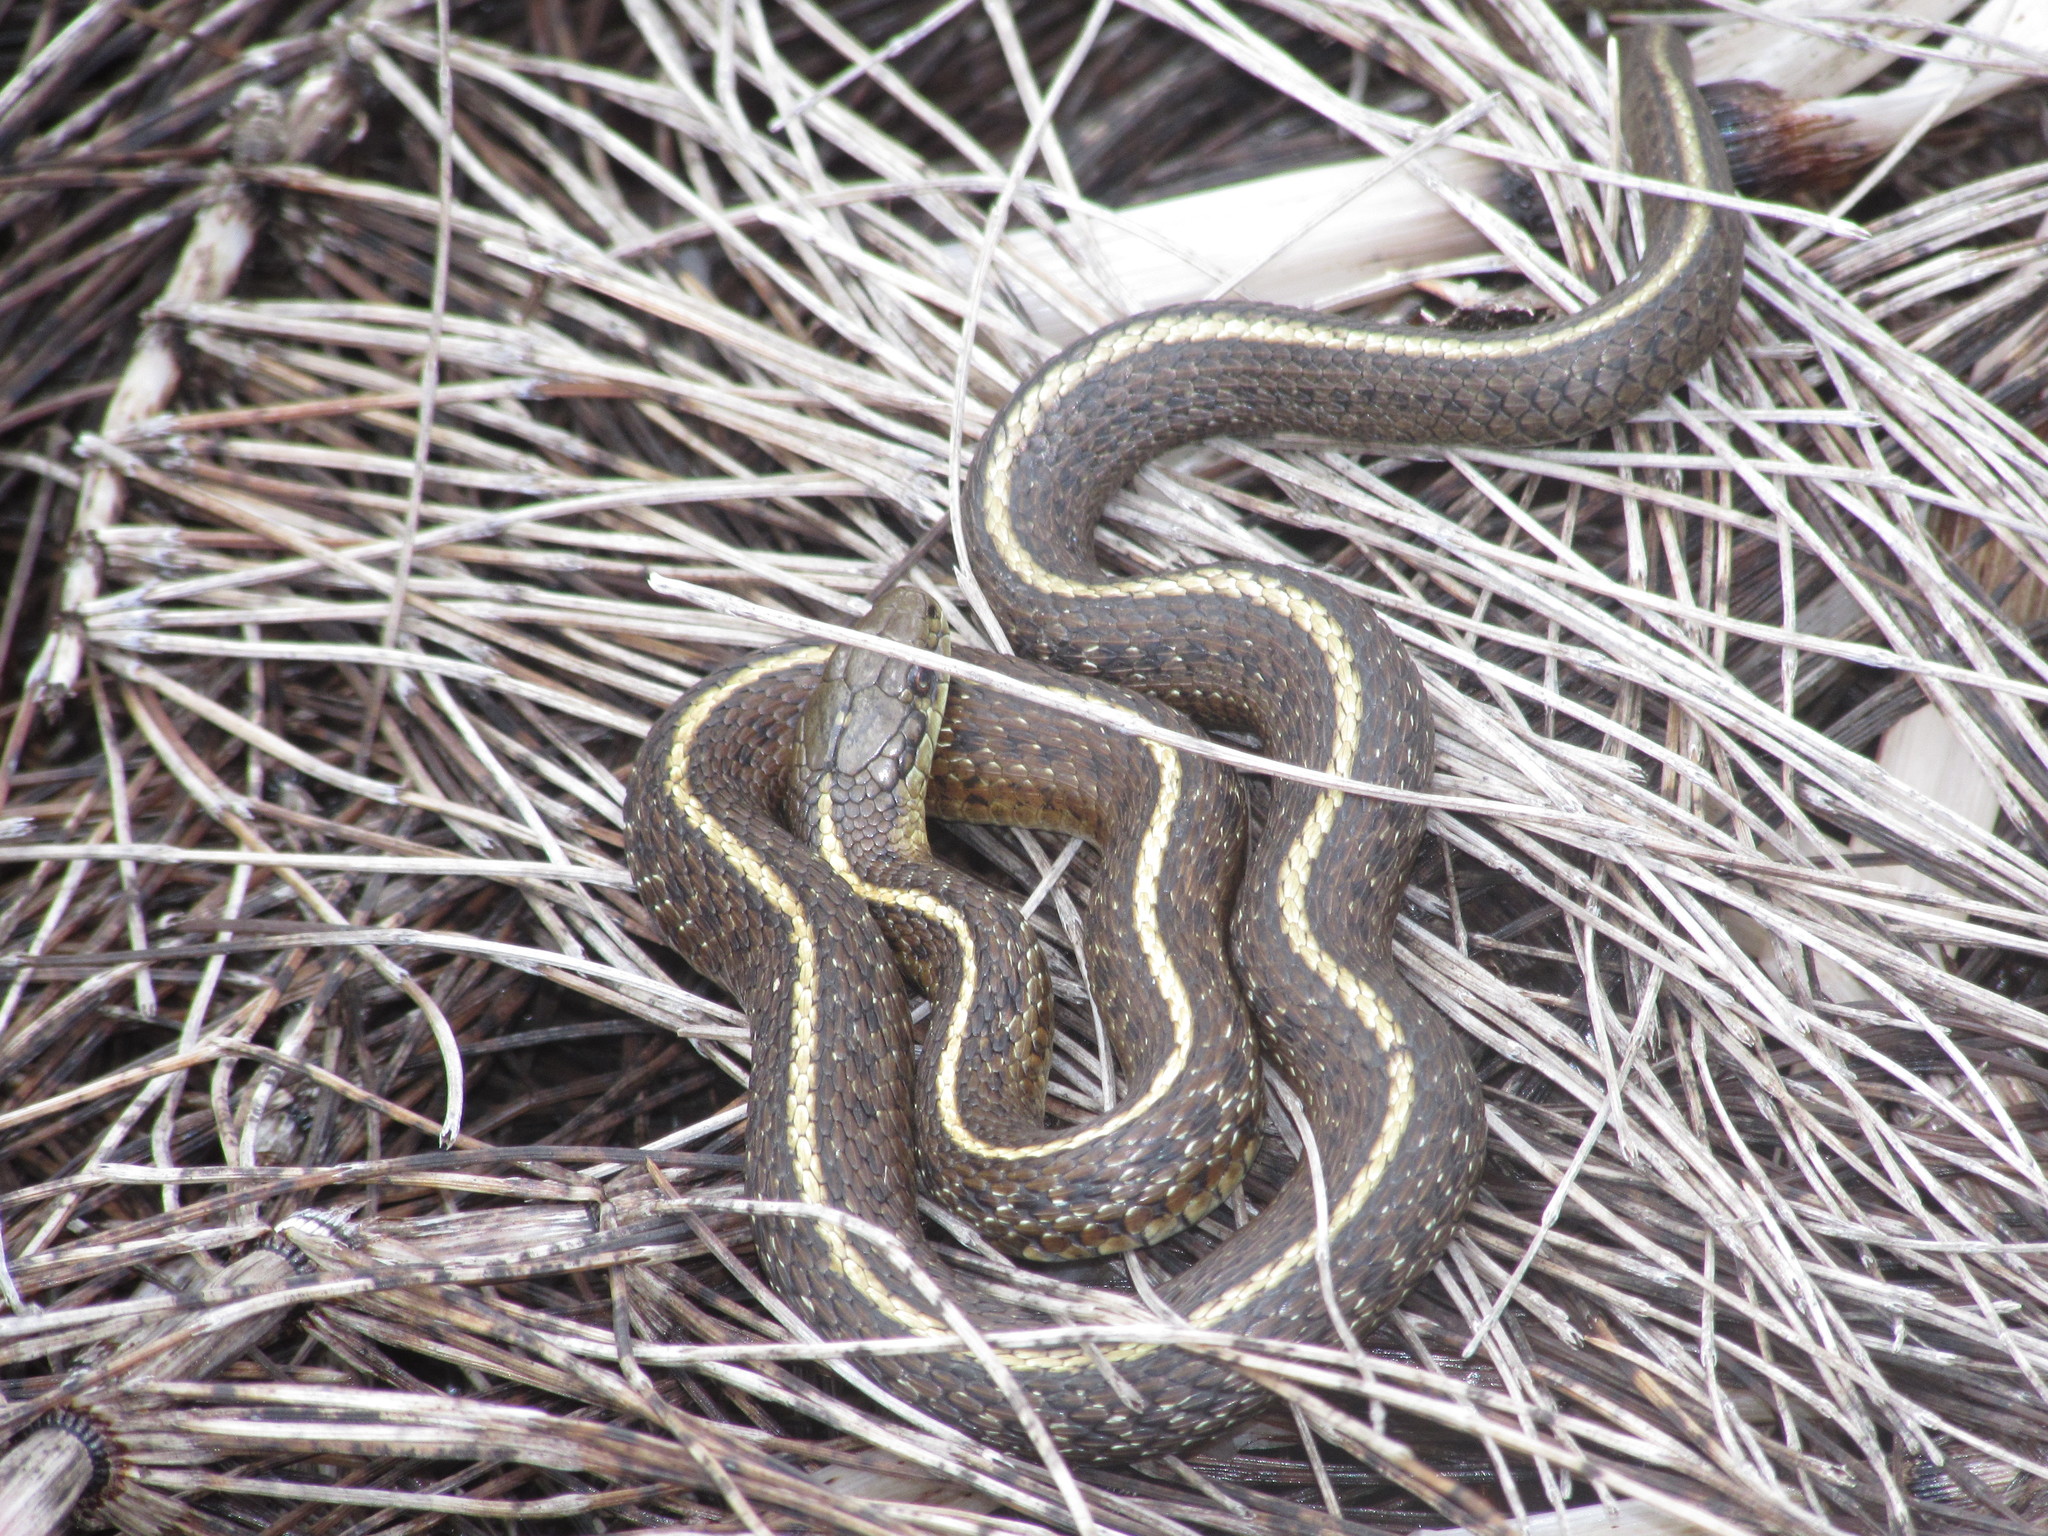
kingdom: Animalia
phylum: Chordata
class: Squamata
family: Colubridae
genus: Thamnophis
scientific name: Thamnophis ordinoides
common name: Northwestern garter snake
